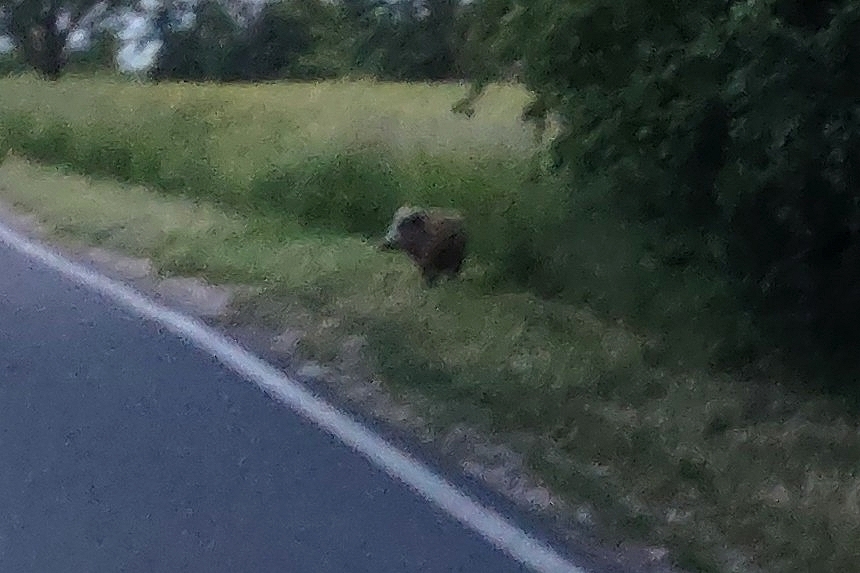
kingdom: Animalia
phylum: Chordata
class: Mammalia
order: Artiodactyla
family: Suidae
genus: Sus
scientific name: Sus scrofa
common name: Wild boar
